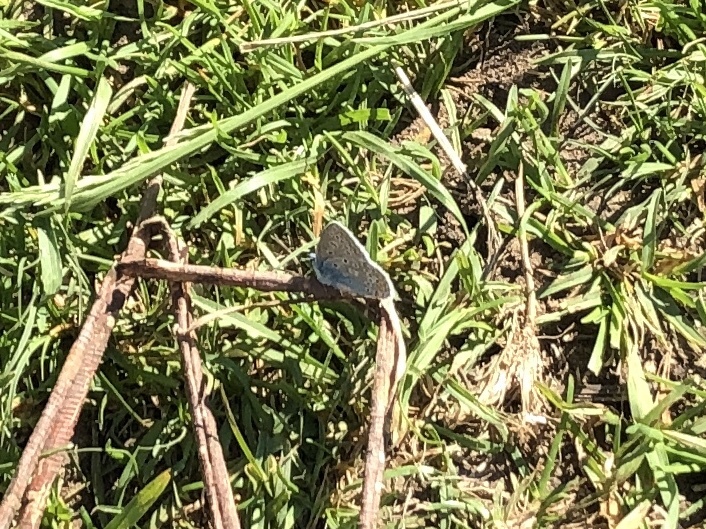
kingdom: Animalia
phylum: Arthropoda
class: Insecta
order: Lepidoptera
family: Lycaenidae
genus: Polyommatus
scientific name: Polyommatus icarus
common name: Common blue
